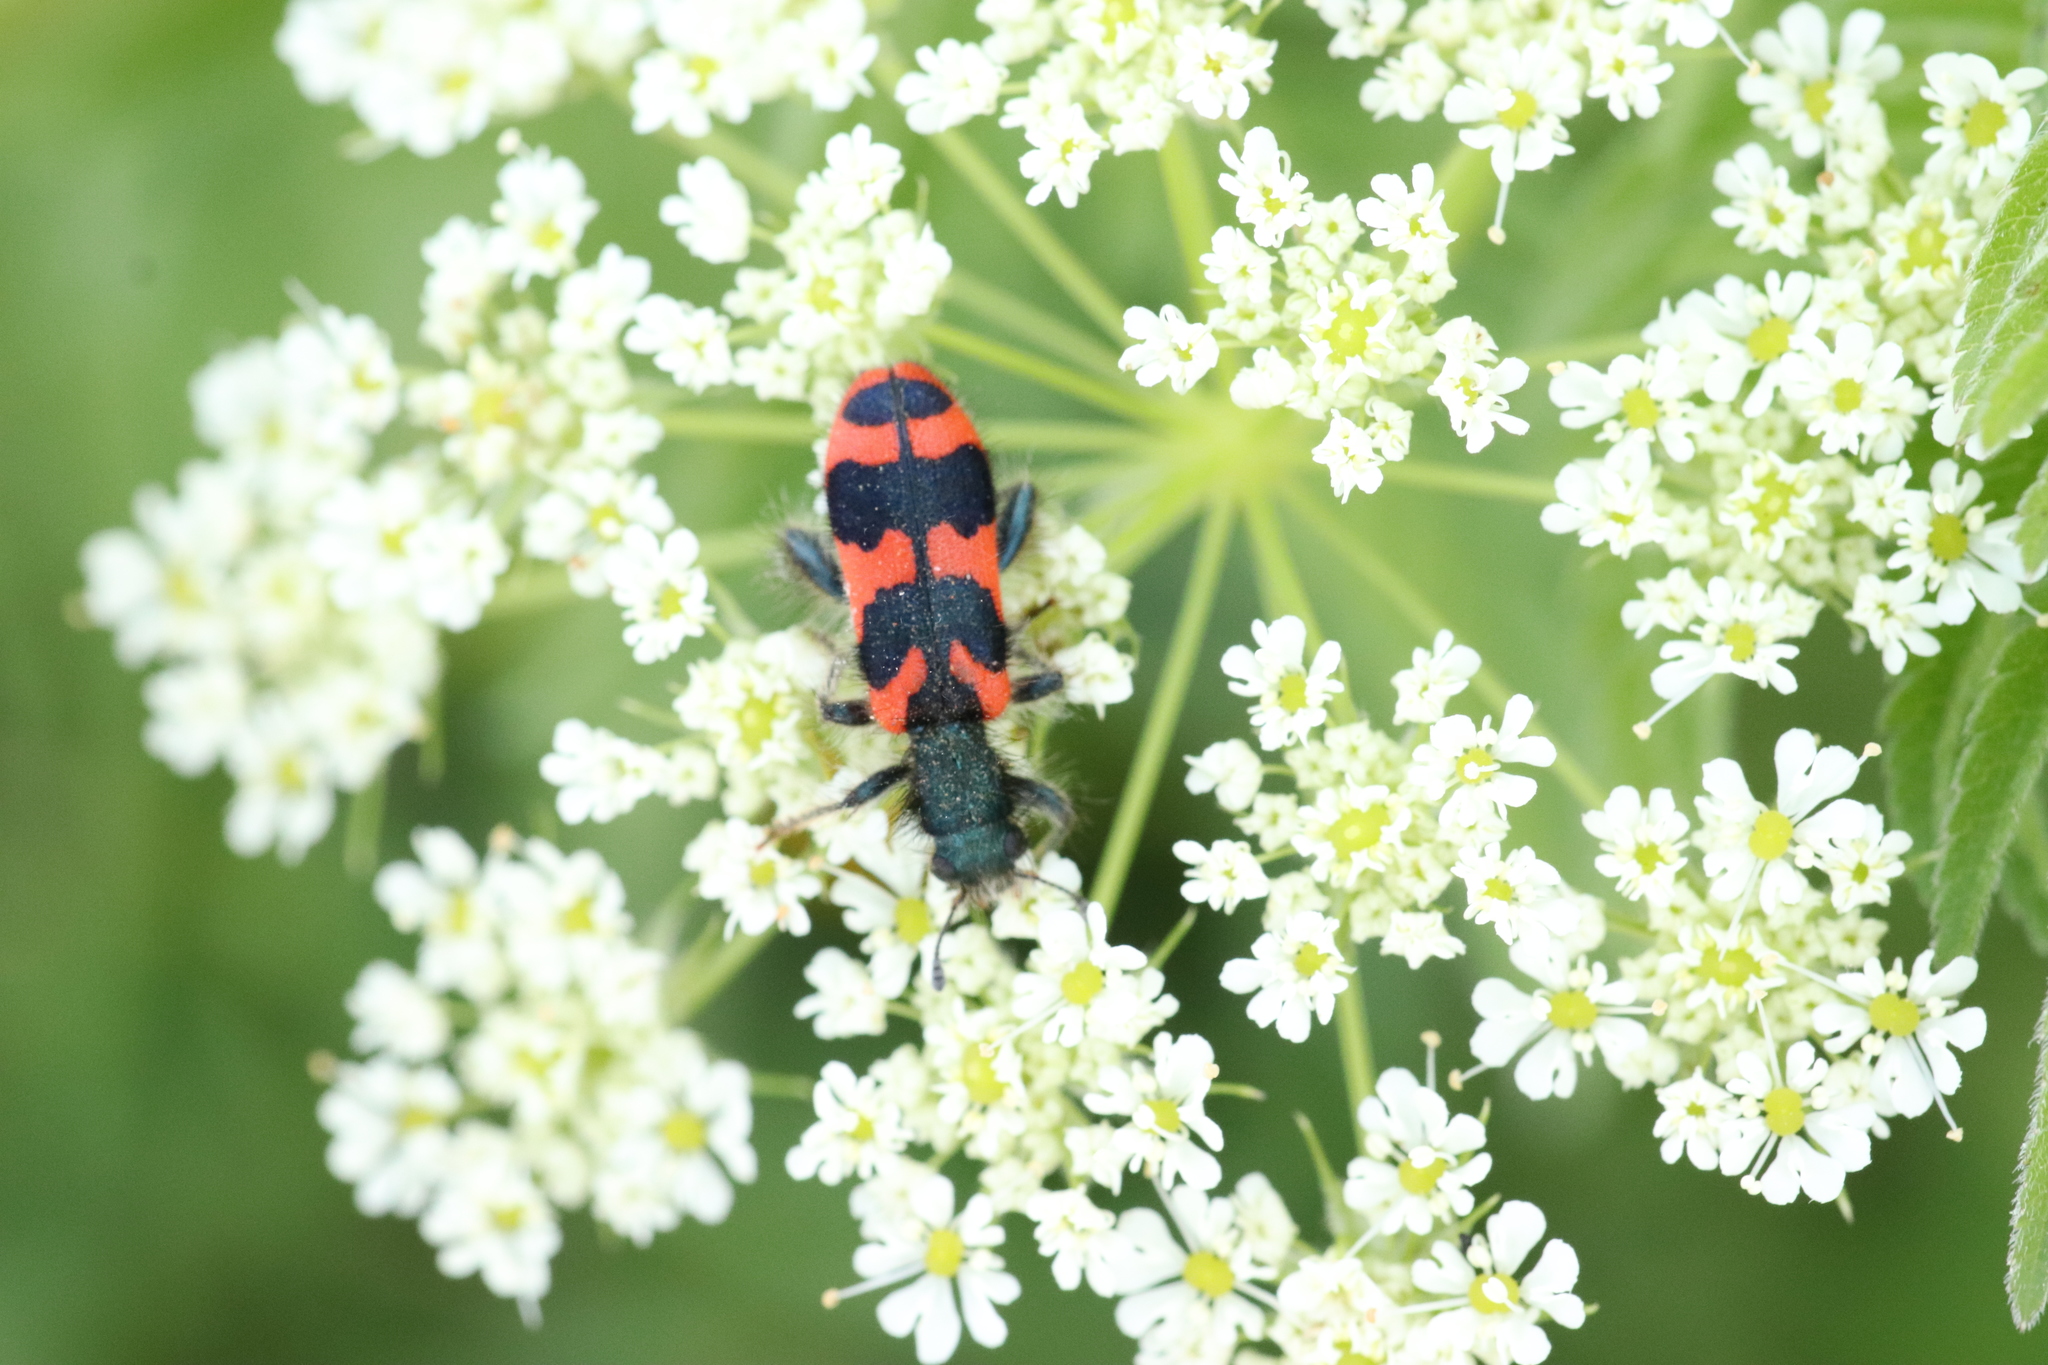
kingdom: Animalia
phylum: Arthropoda
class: Insecta
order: Coleoptera
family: Cleridae
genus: Trichodes
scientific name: Trichodes alvearius
